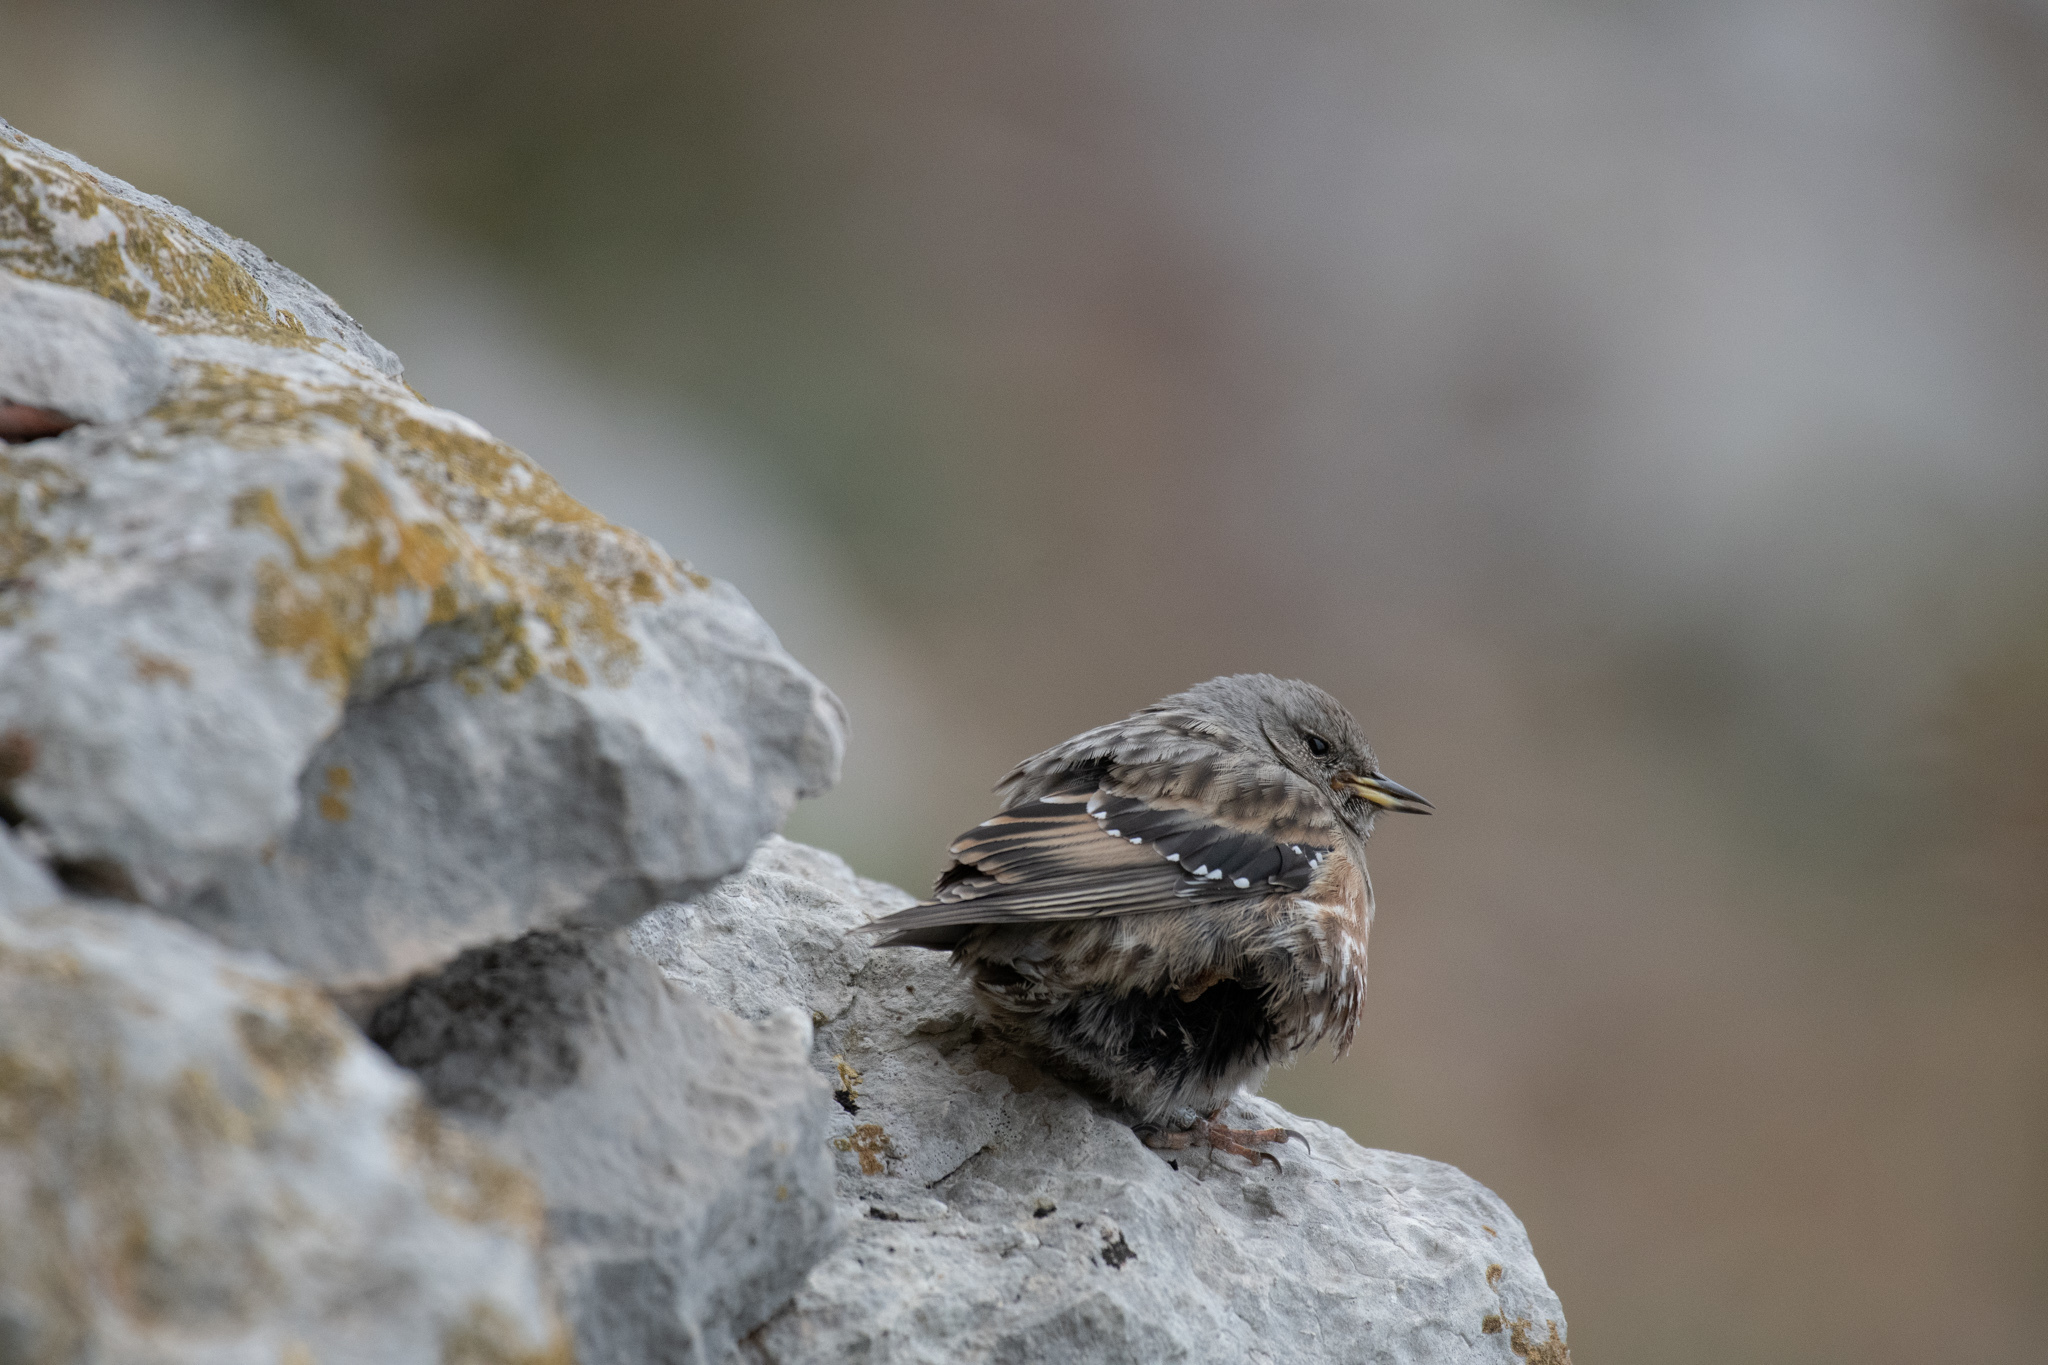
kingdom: Animalia
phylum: Chordata
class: Aves
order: Passeriformes
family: Prunellidae
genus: Prunella
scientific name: Prunella collaris
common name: Alpine accentor
